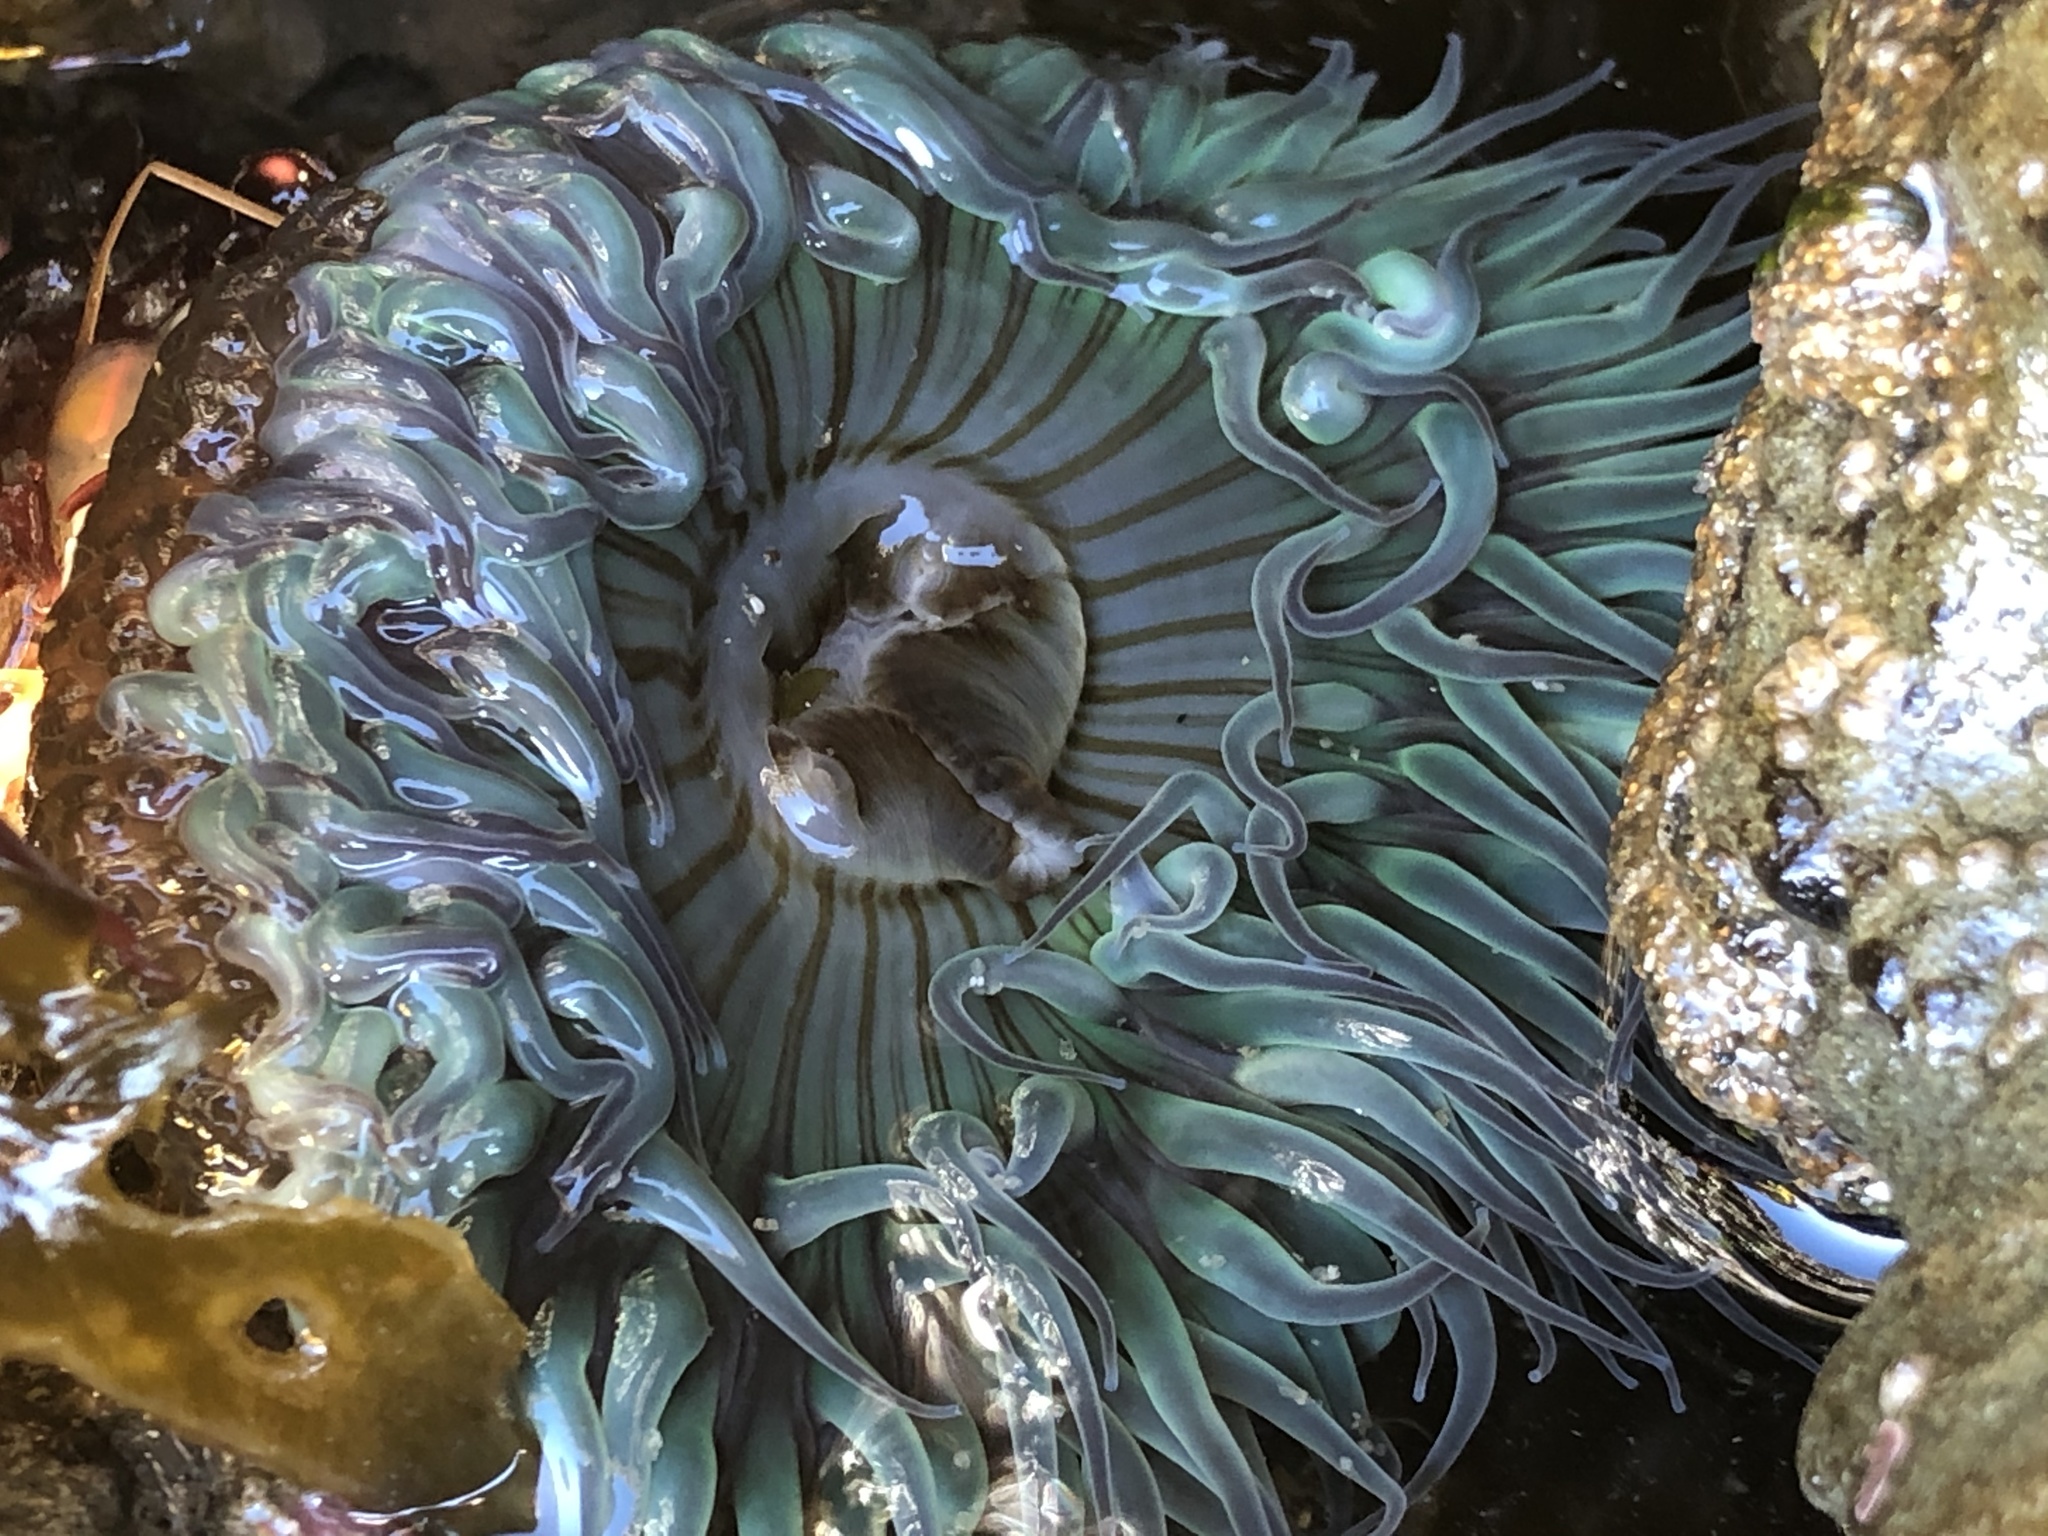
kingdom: Animalia
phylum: Cnidaria
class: Anthozoa
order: Actiniaria
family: Actiniidae
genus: Anthopleura
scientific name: Anthopleura sola
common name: Sun anemone
